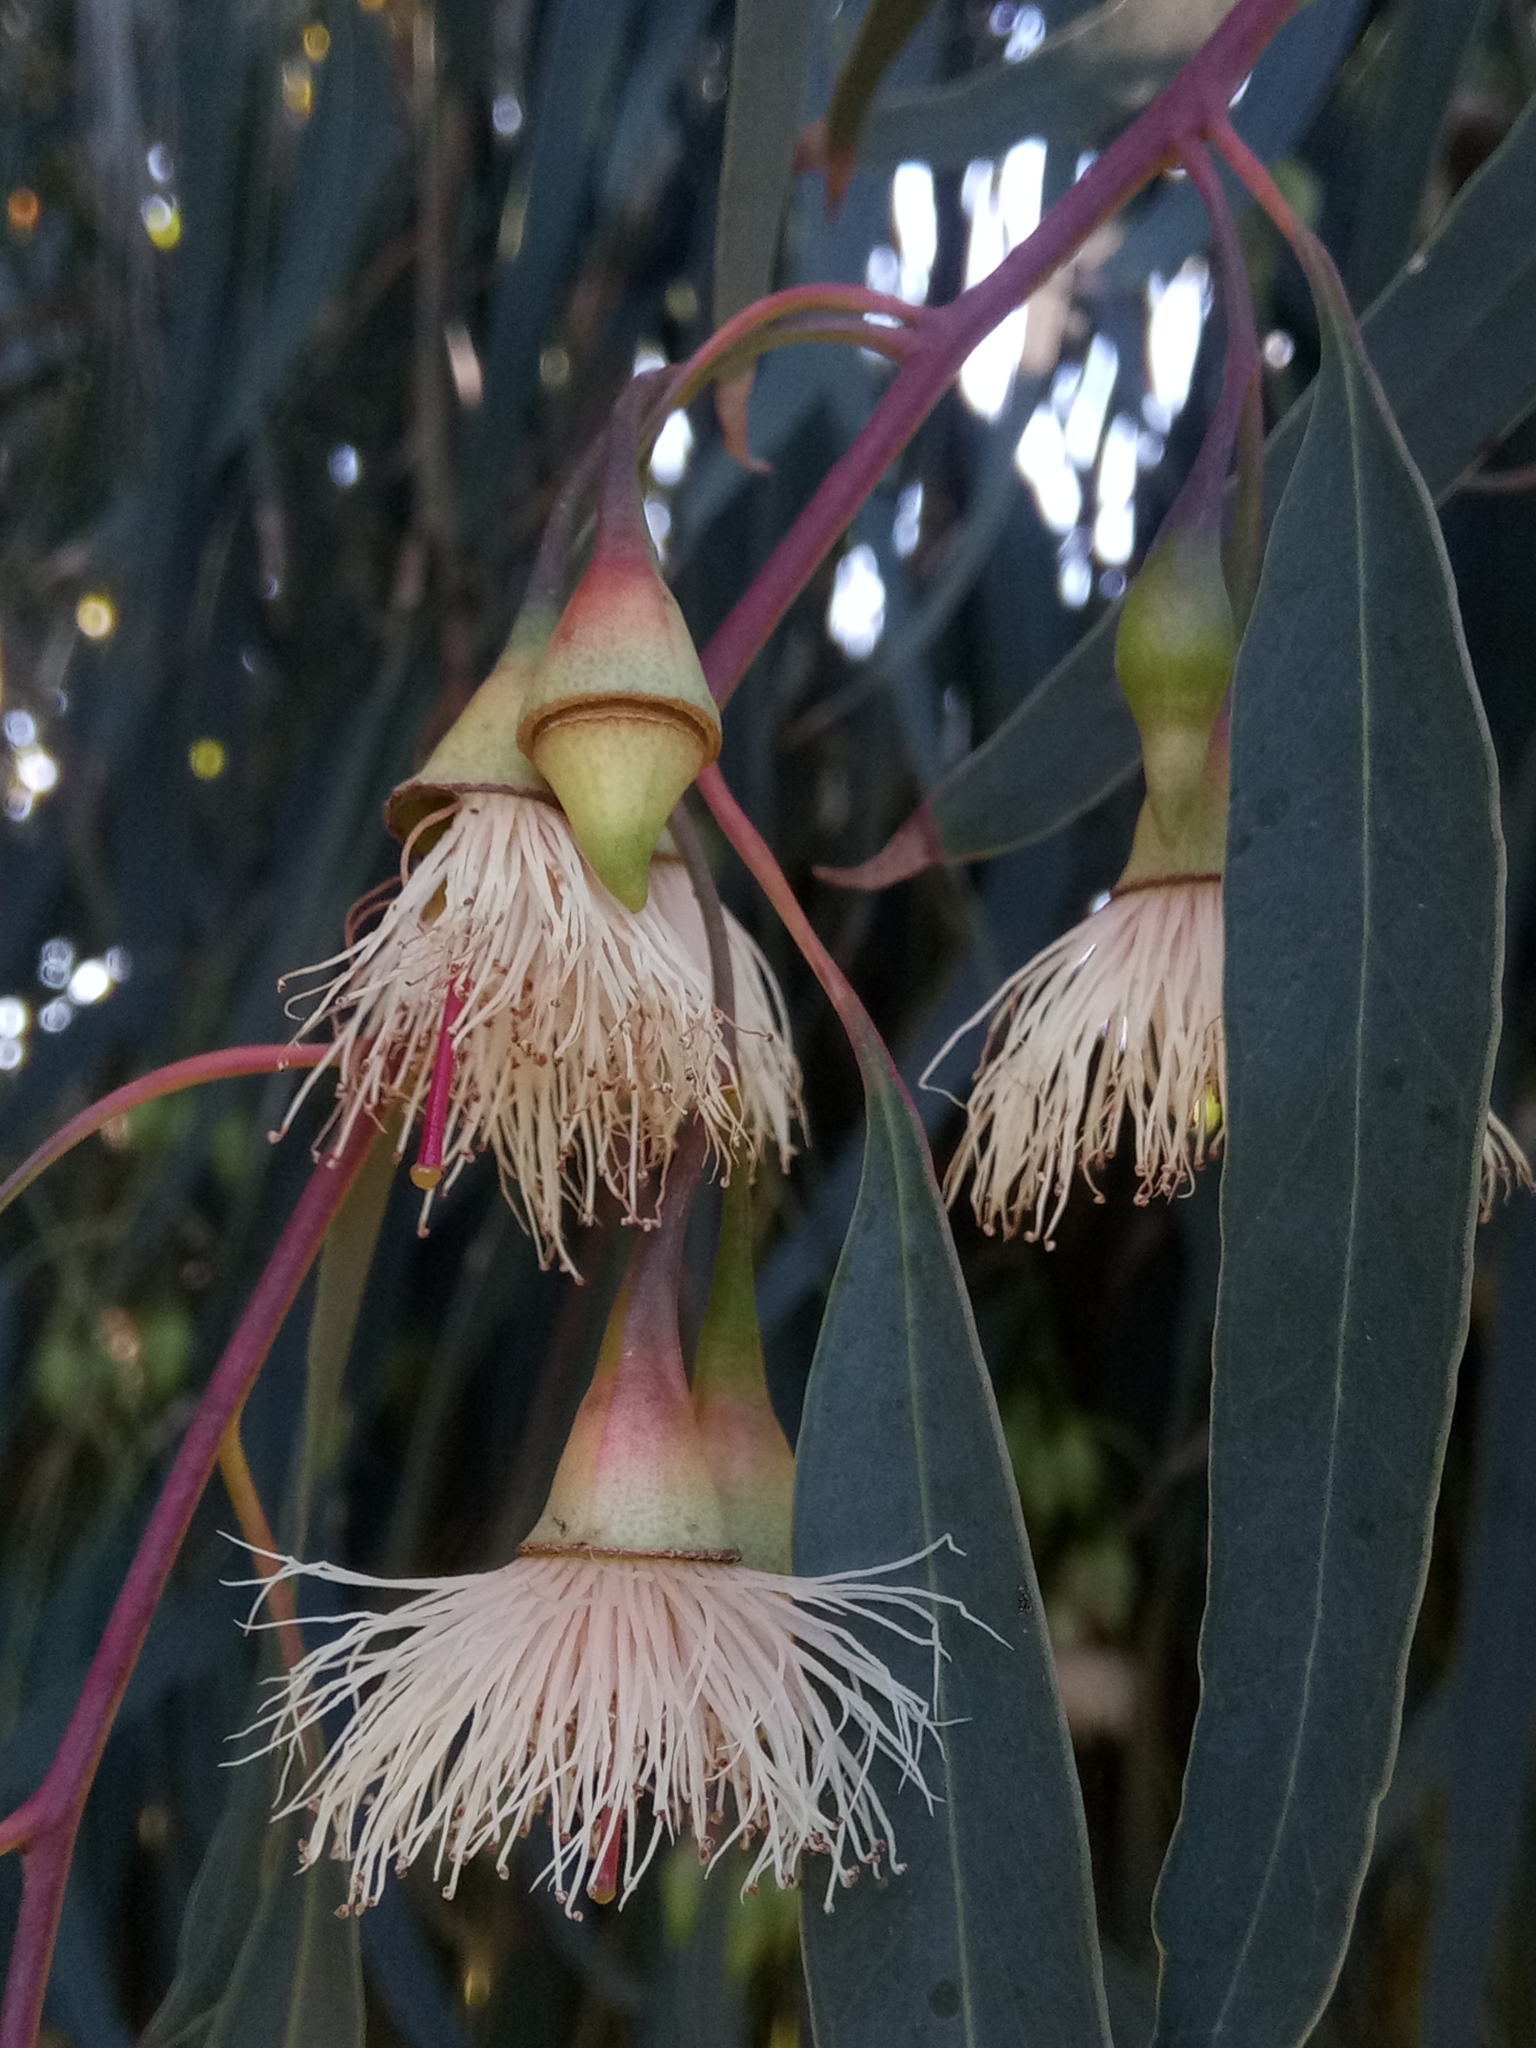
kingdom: Plantae
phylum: Tracheophyta
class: Magnoliopsida
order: Myrtales
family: Myrtaceae
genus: Eucalyptus
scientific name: Eucalyptus tricarpa
